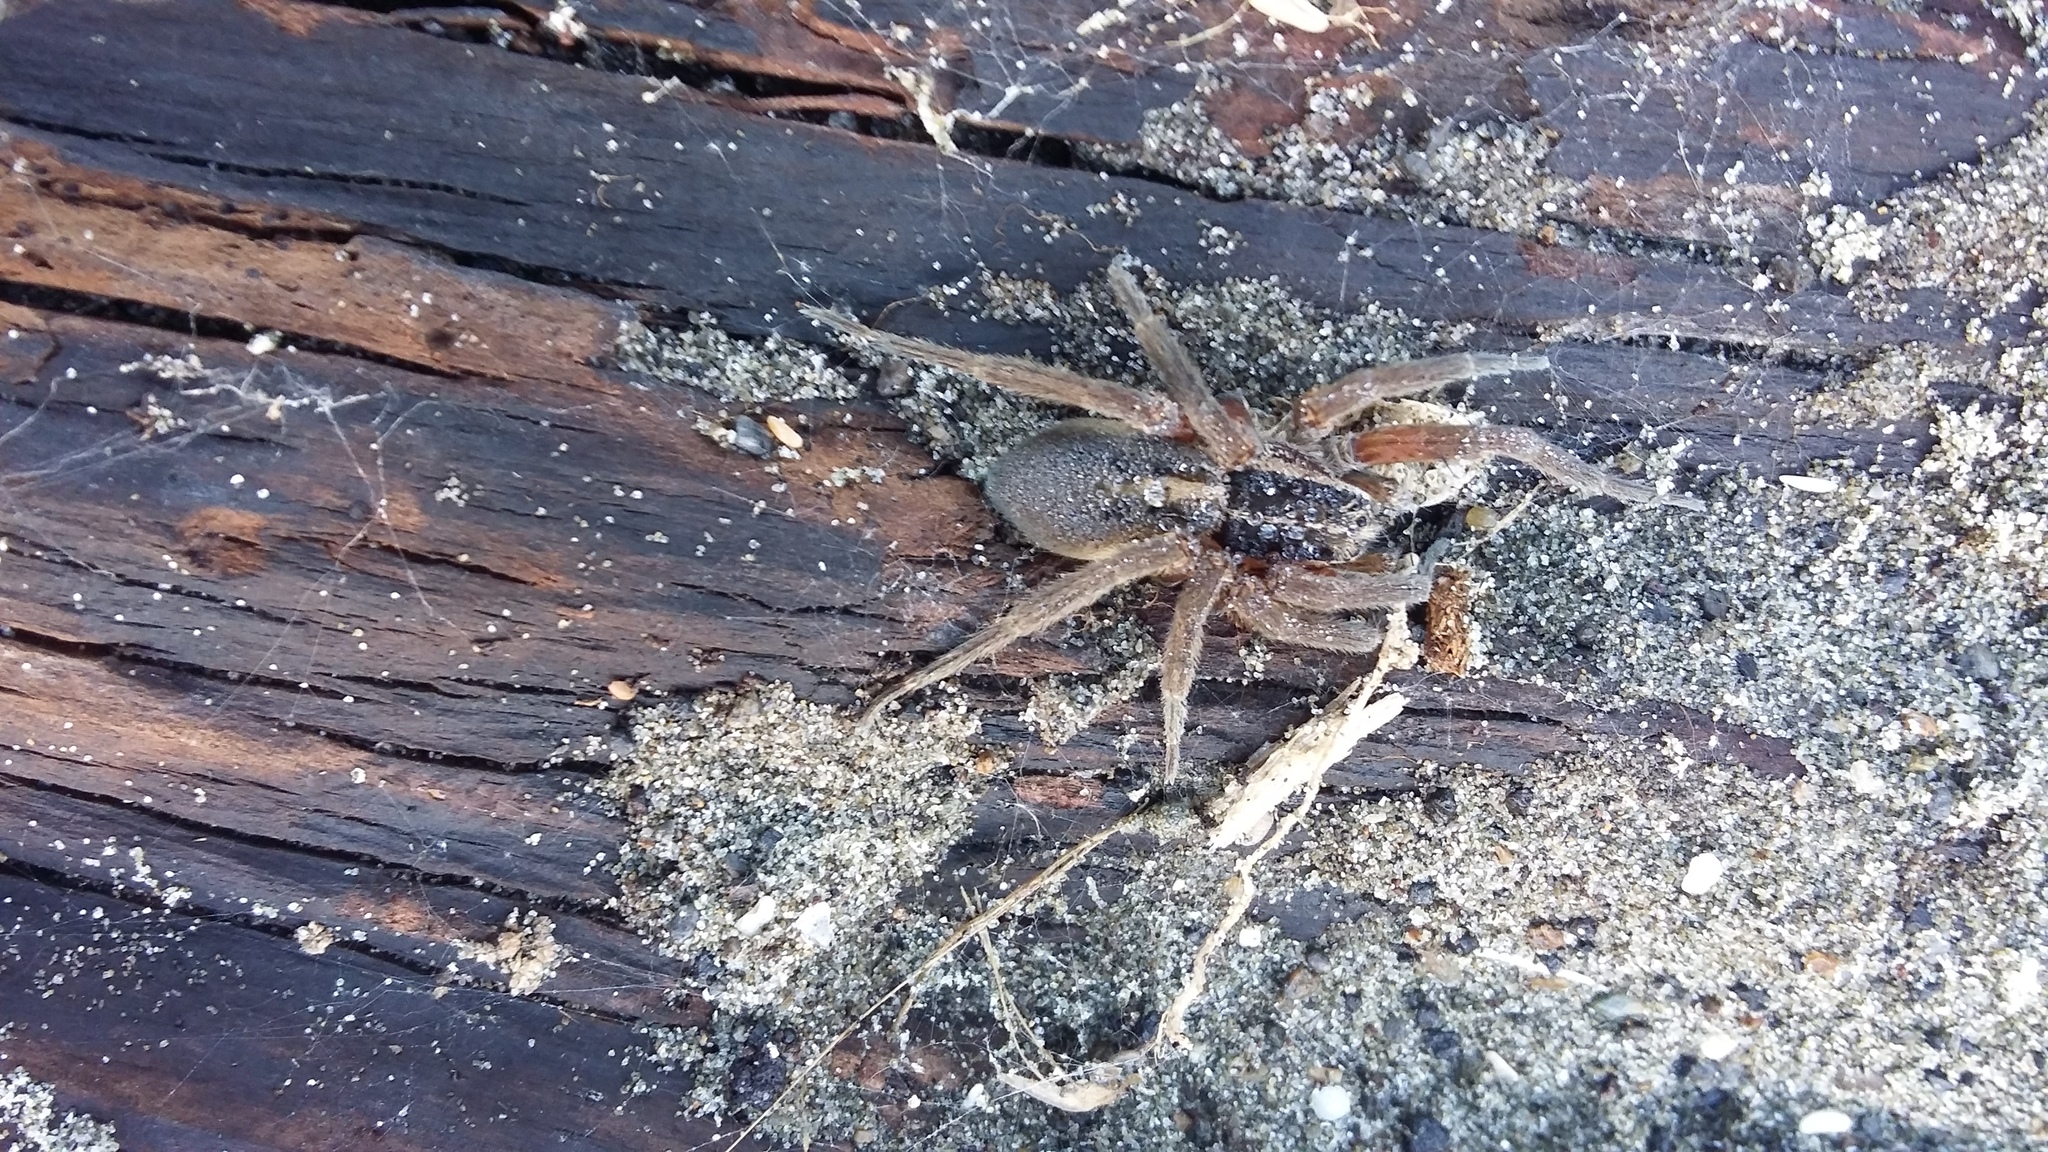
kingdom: Animalia
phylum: Arthropoda
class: Arachnida
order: Araneae
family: Pisauridae
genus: Dolomedes
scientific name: Dolomedes minor
